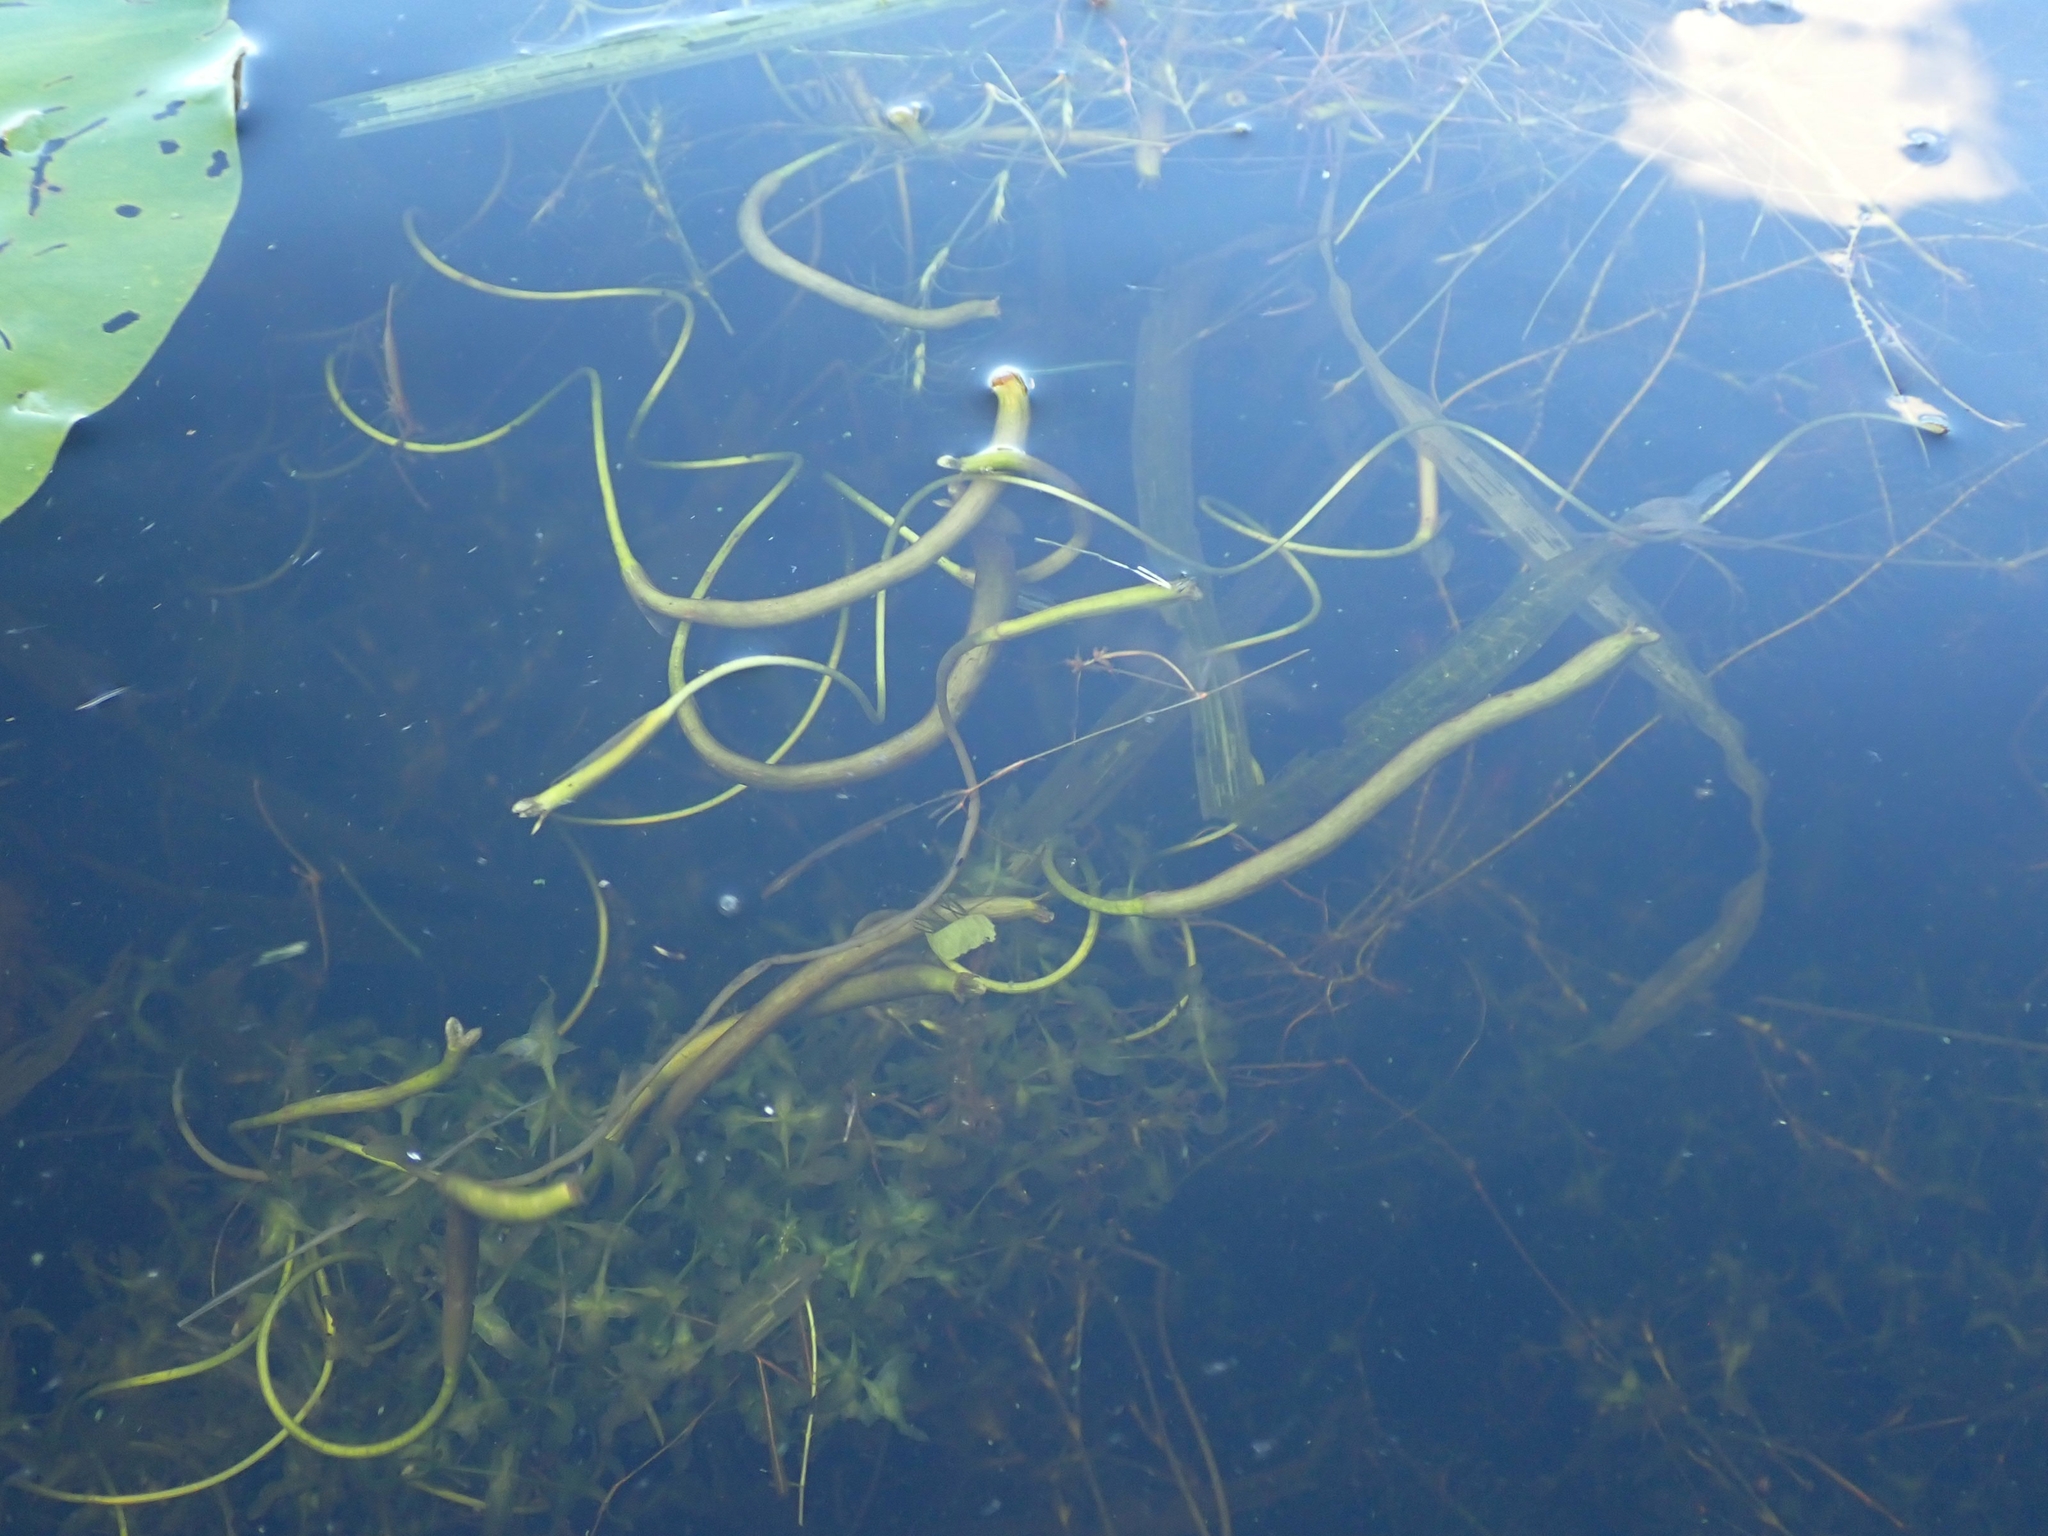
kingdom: Plantae
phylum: Tracheophyta
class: Liliopsida
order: Alismatales
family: Hydrocharitaceae
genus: Vallisneria
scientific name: Vallisneria americana
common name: American eelgrass
